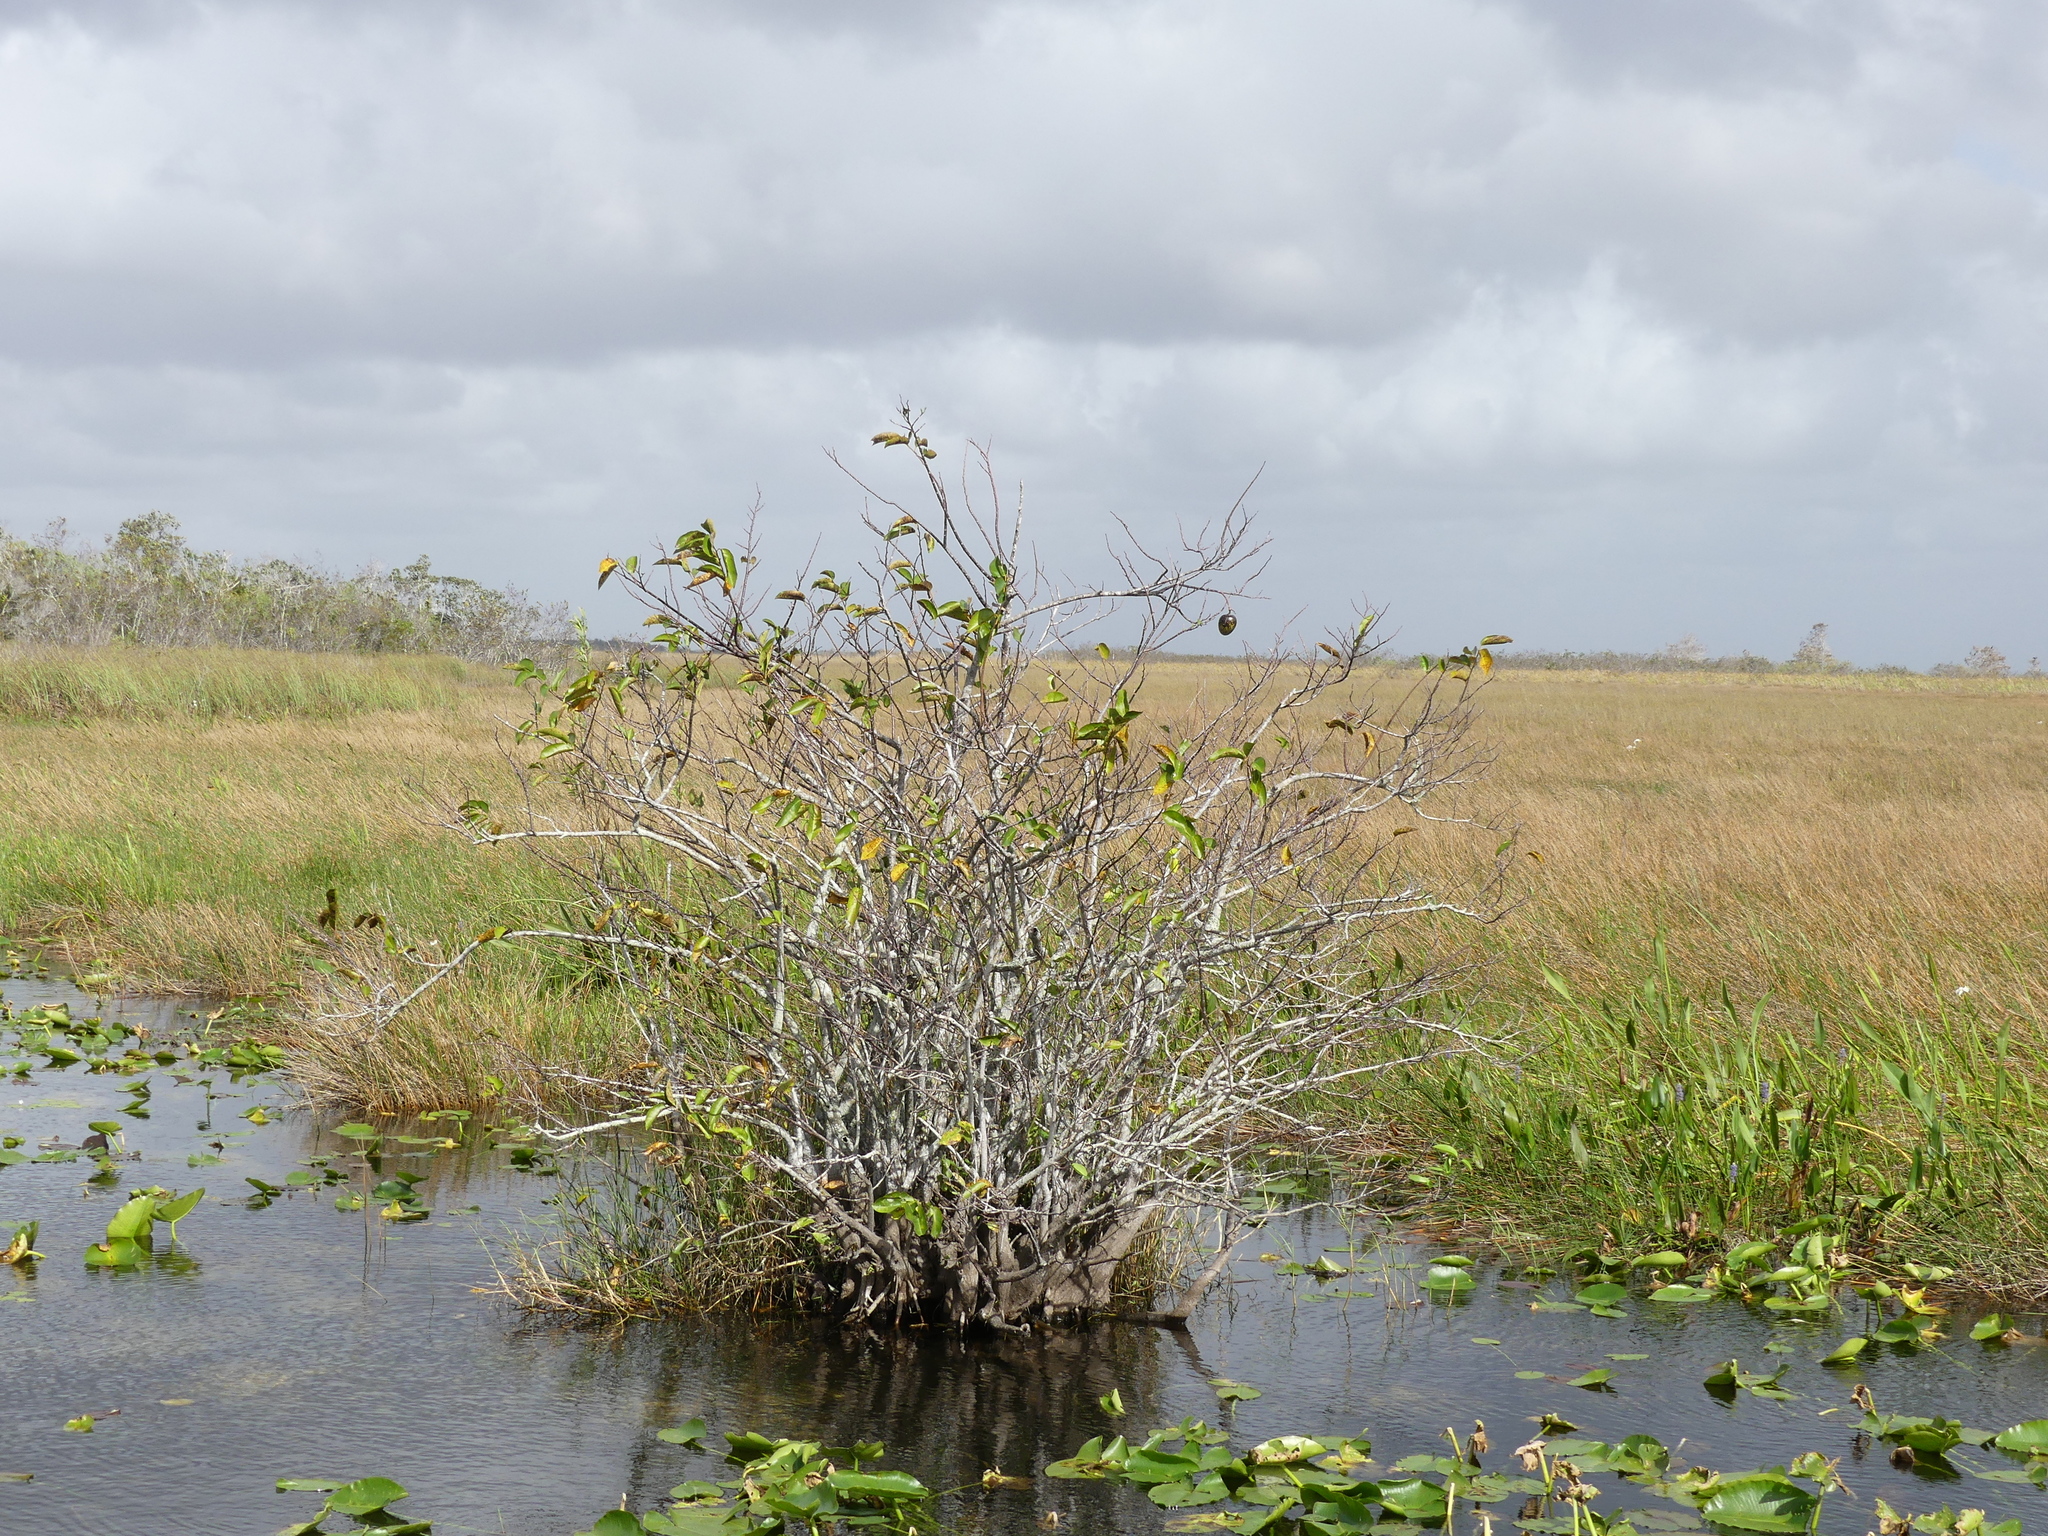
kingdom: Plantae
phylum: Tracheophyta
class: Magnoliopsida
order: Magnoliales
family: Annonaceae
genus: Annona
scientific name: Annona glabra
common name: Monkey apple
